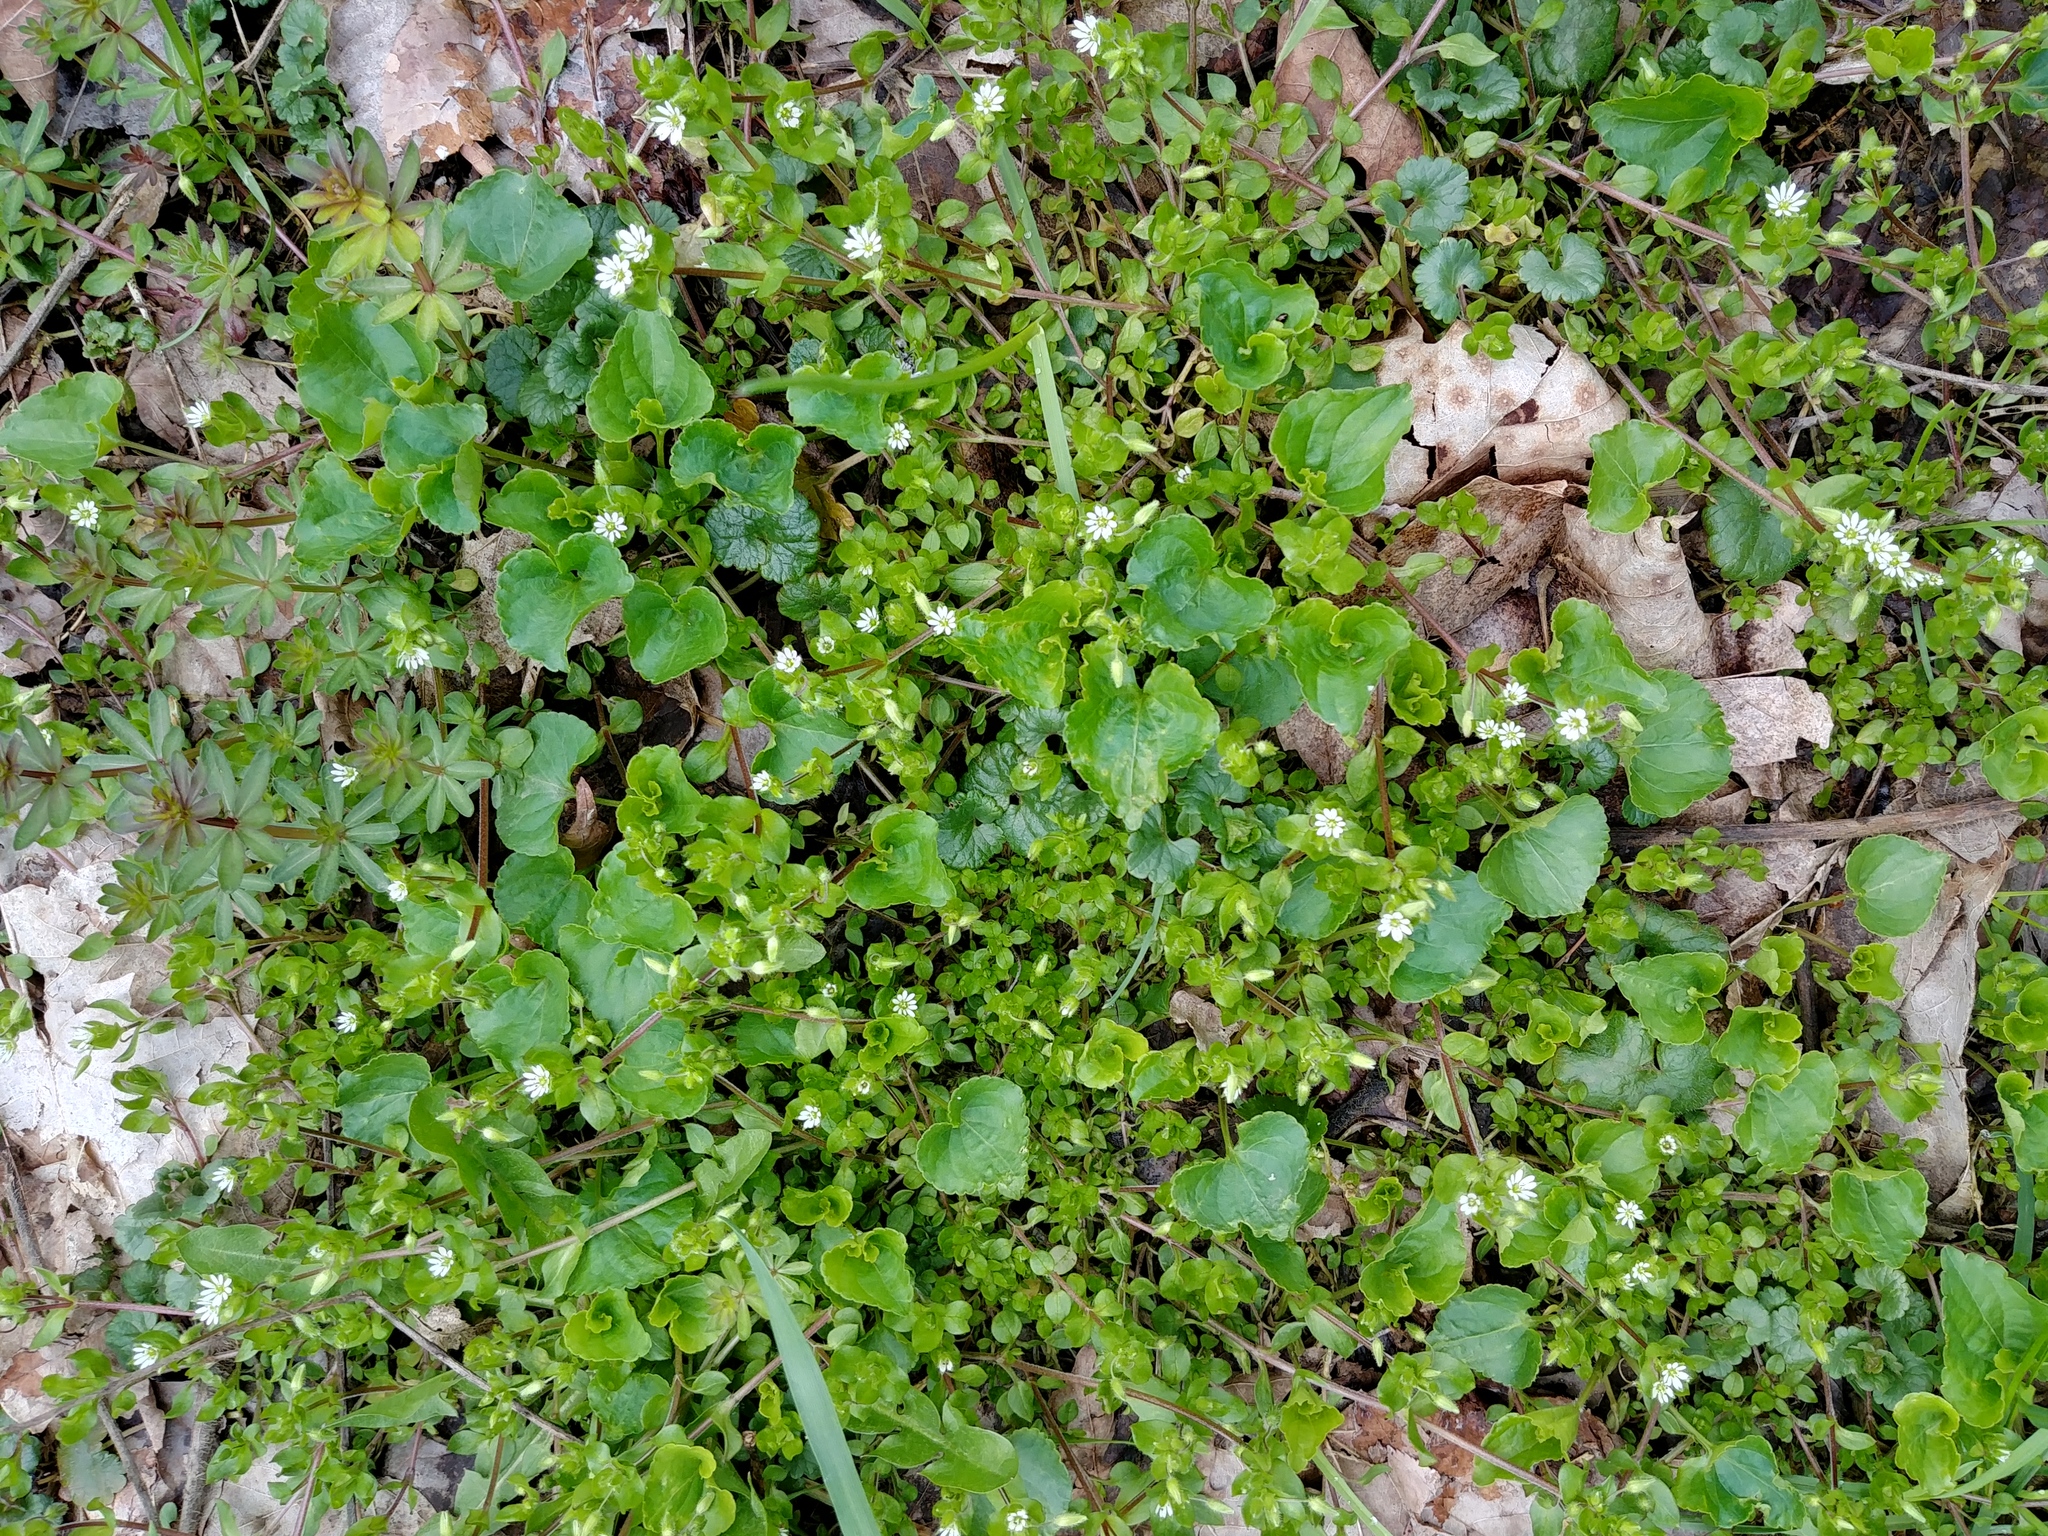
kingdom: Plantae
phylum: Tracheophyta
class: Magnoliopsida
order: Caryophyllales
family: Caryophyllaceae
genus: Stellaria
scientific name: Stellaria media
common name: Common chickweed
